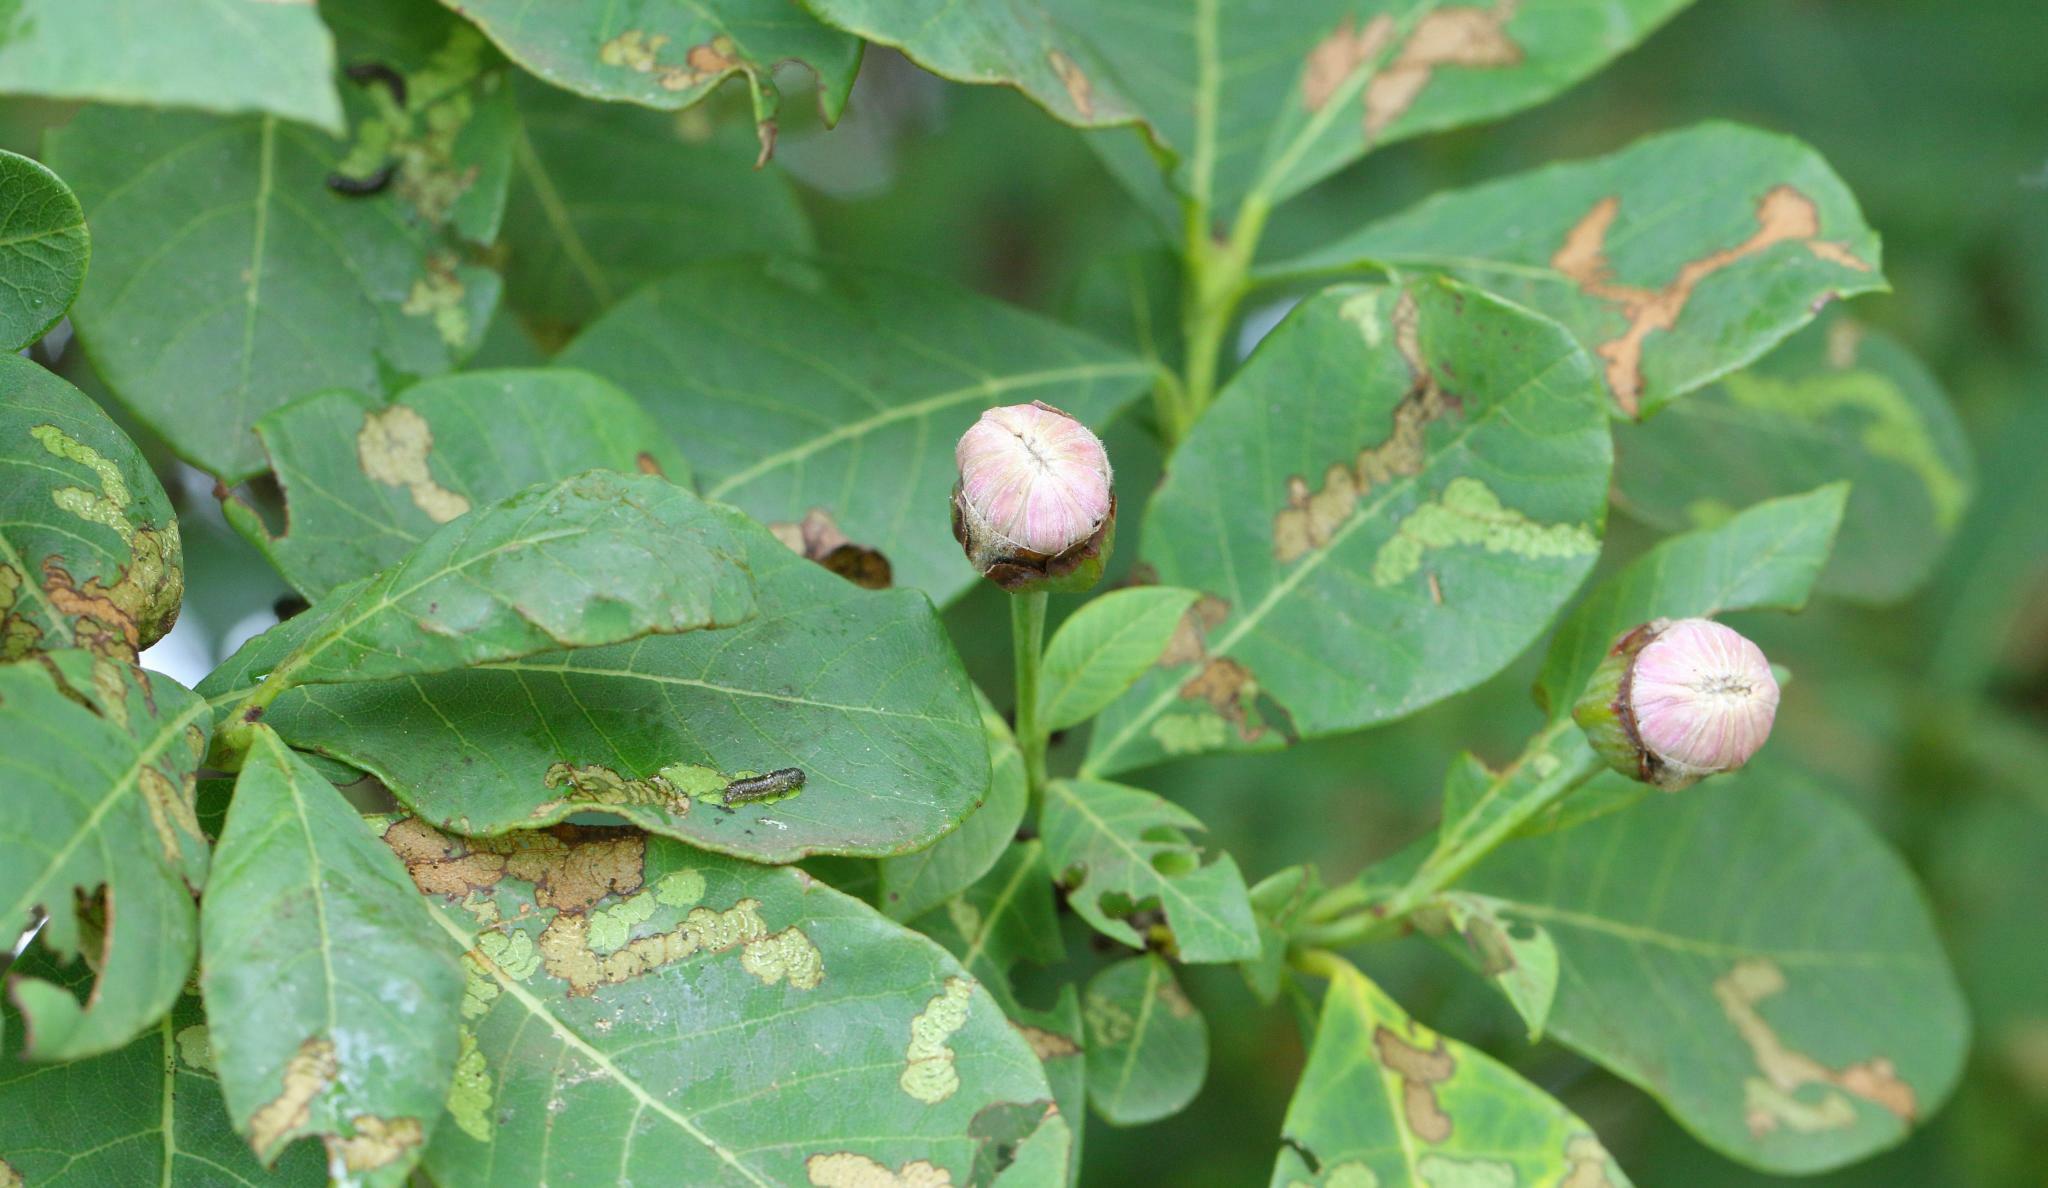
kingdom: Plantae
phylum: Tracheophyta
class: Magnoliopsida
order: Malvales
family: Thymelaeaceae
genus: Dais
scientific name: Dais cotinifolia
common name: Pompon tree
